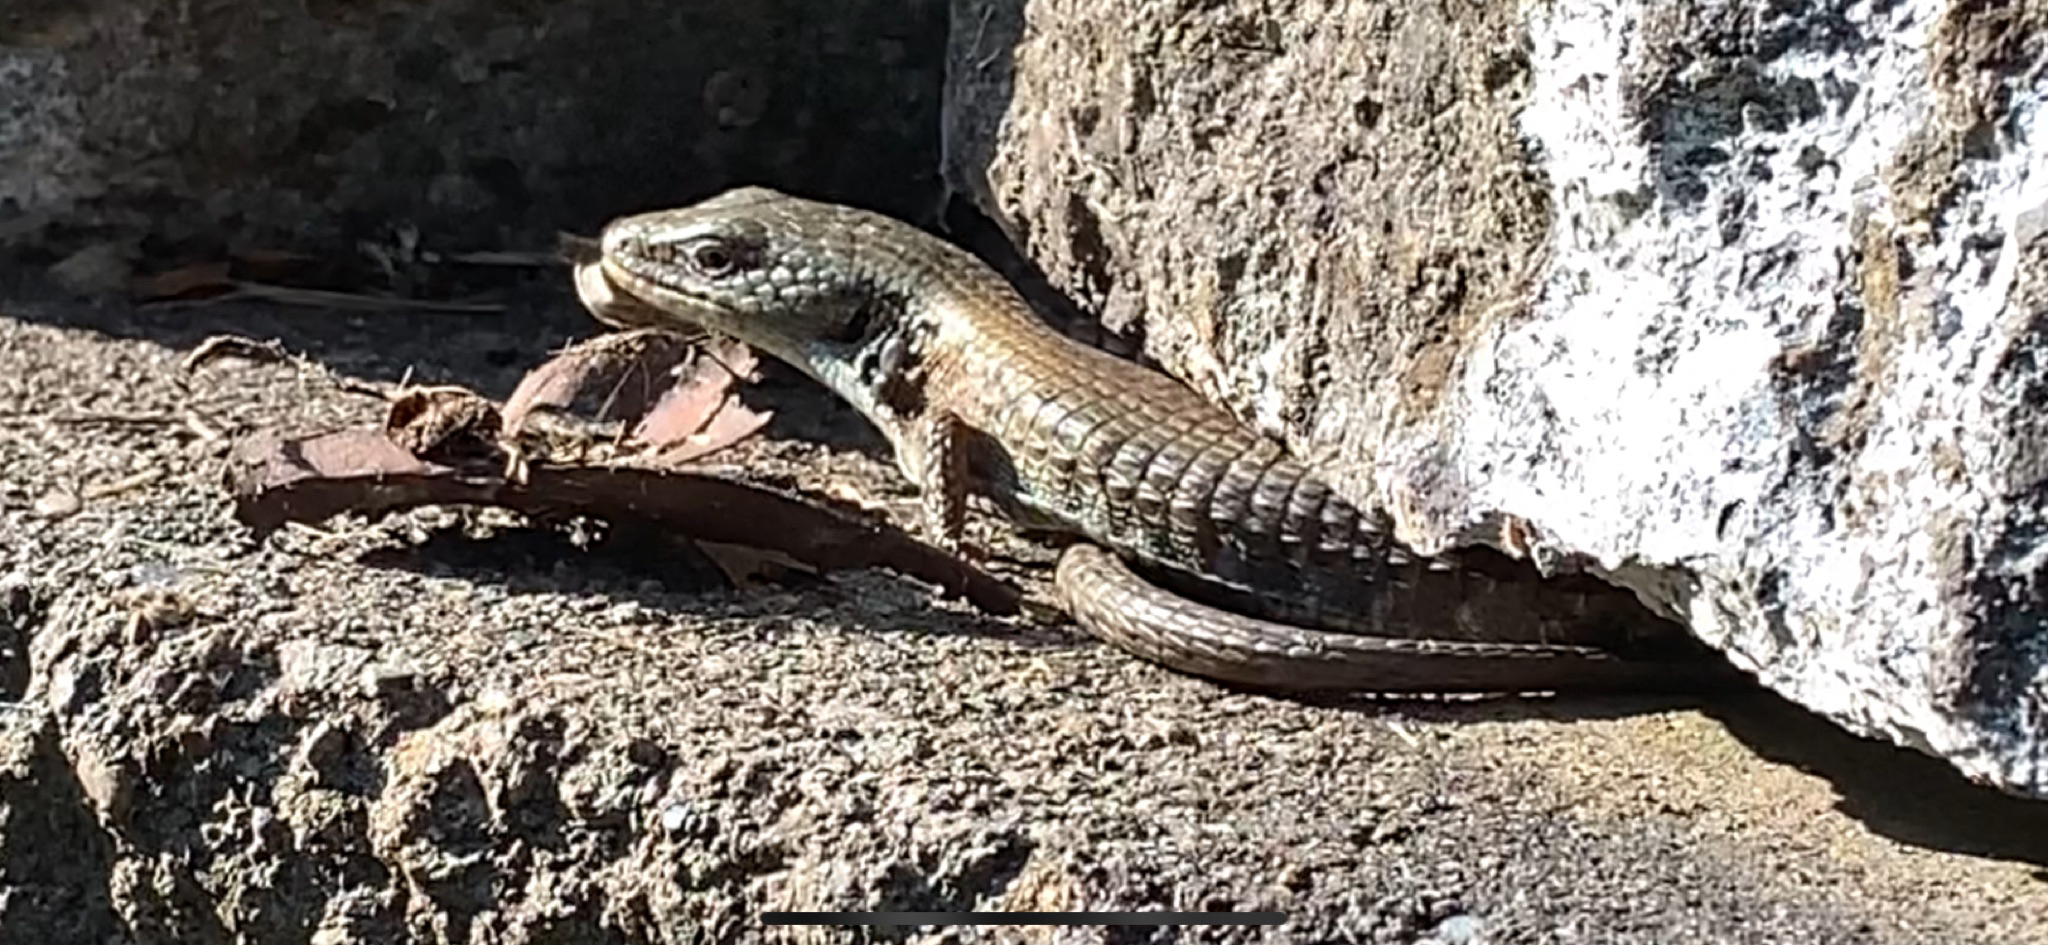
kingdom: Animalia
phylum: Chordata
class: Squamata
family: Anguidae
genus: Elgaria
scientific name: Elgaria coerulea
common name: Northern alligator lizard
